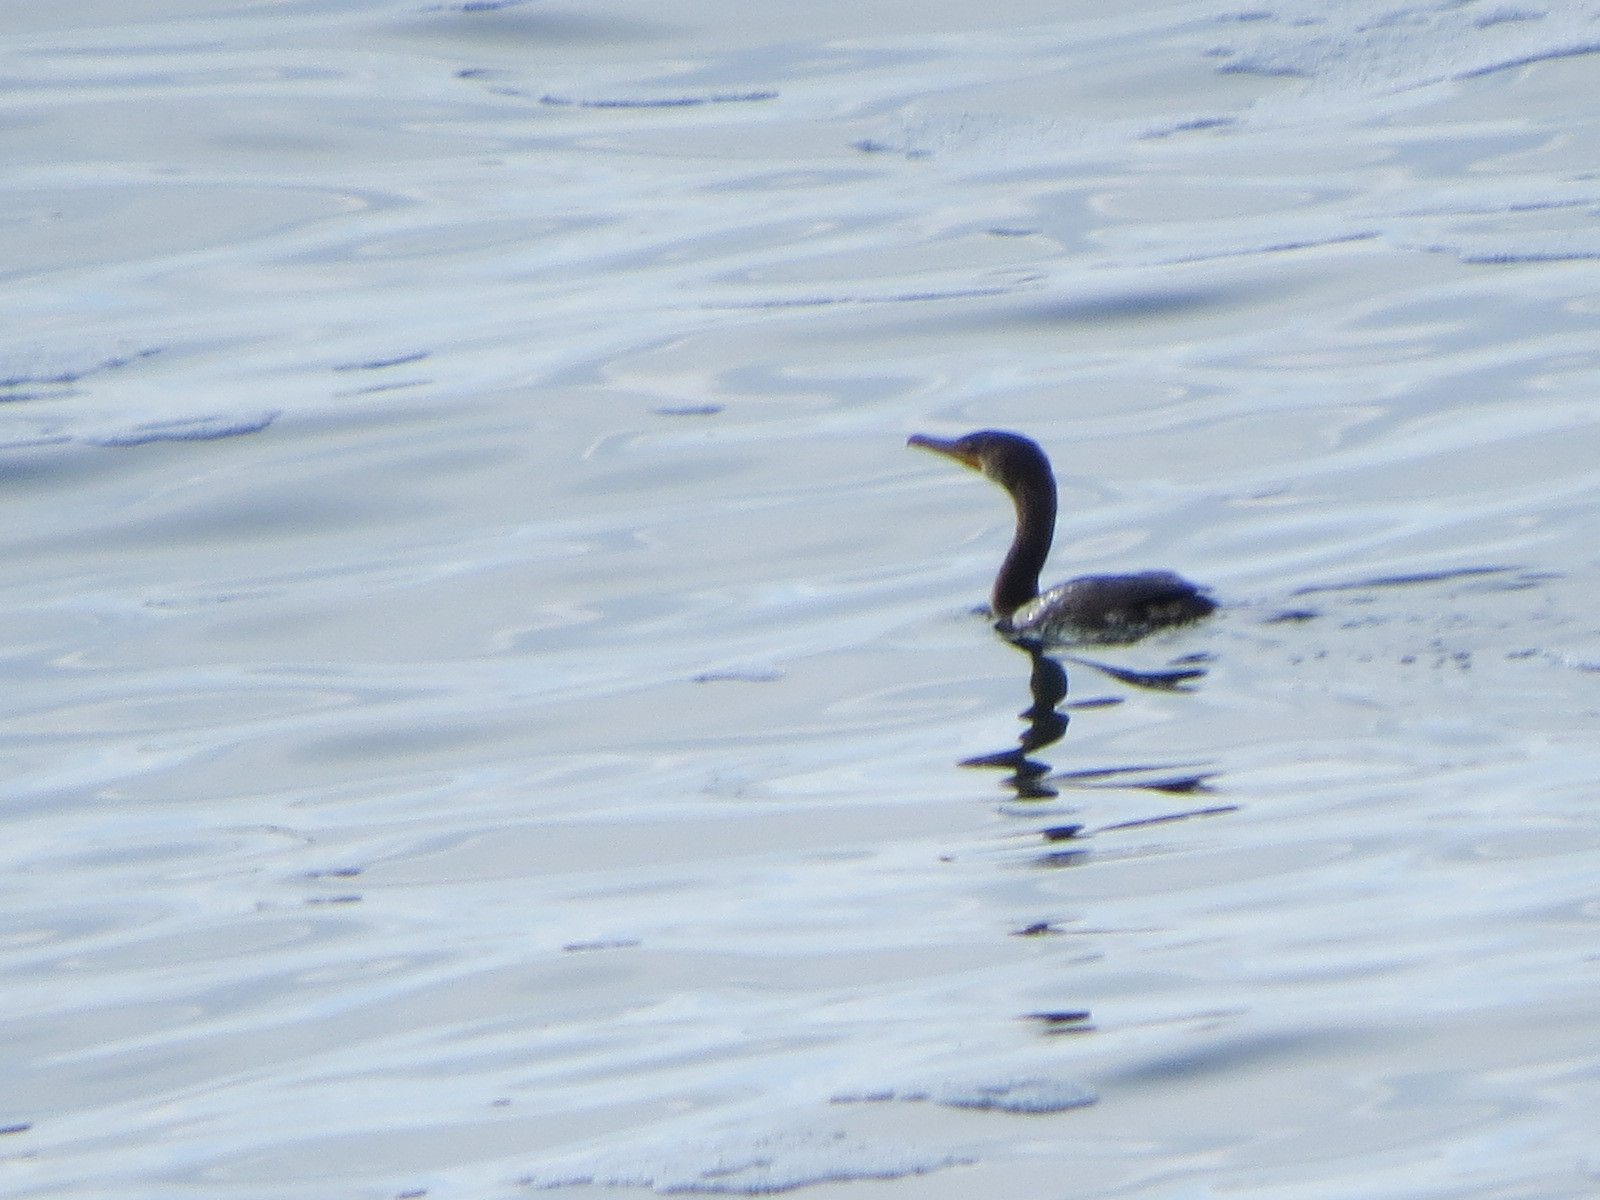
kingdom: Animalia
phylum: Chordata
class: Aves
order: Suliformes
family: Phalacrocoracidae
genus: Phalacrocorax
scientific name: Phalacrocorax auritus
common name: Double-crested cormorant
